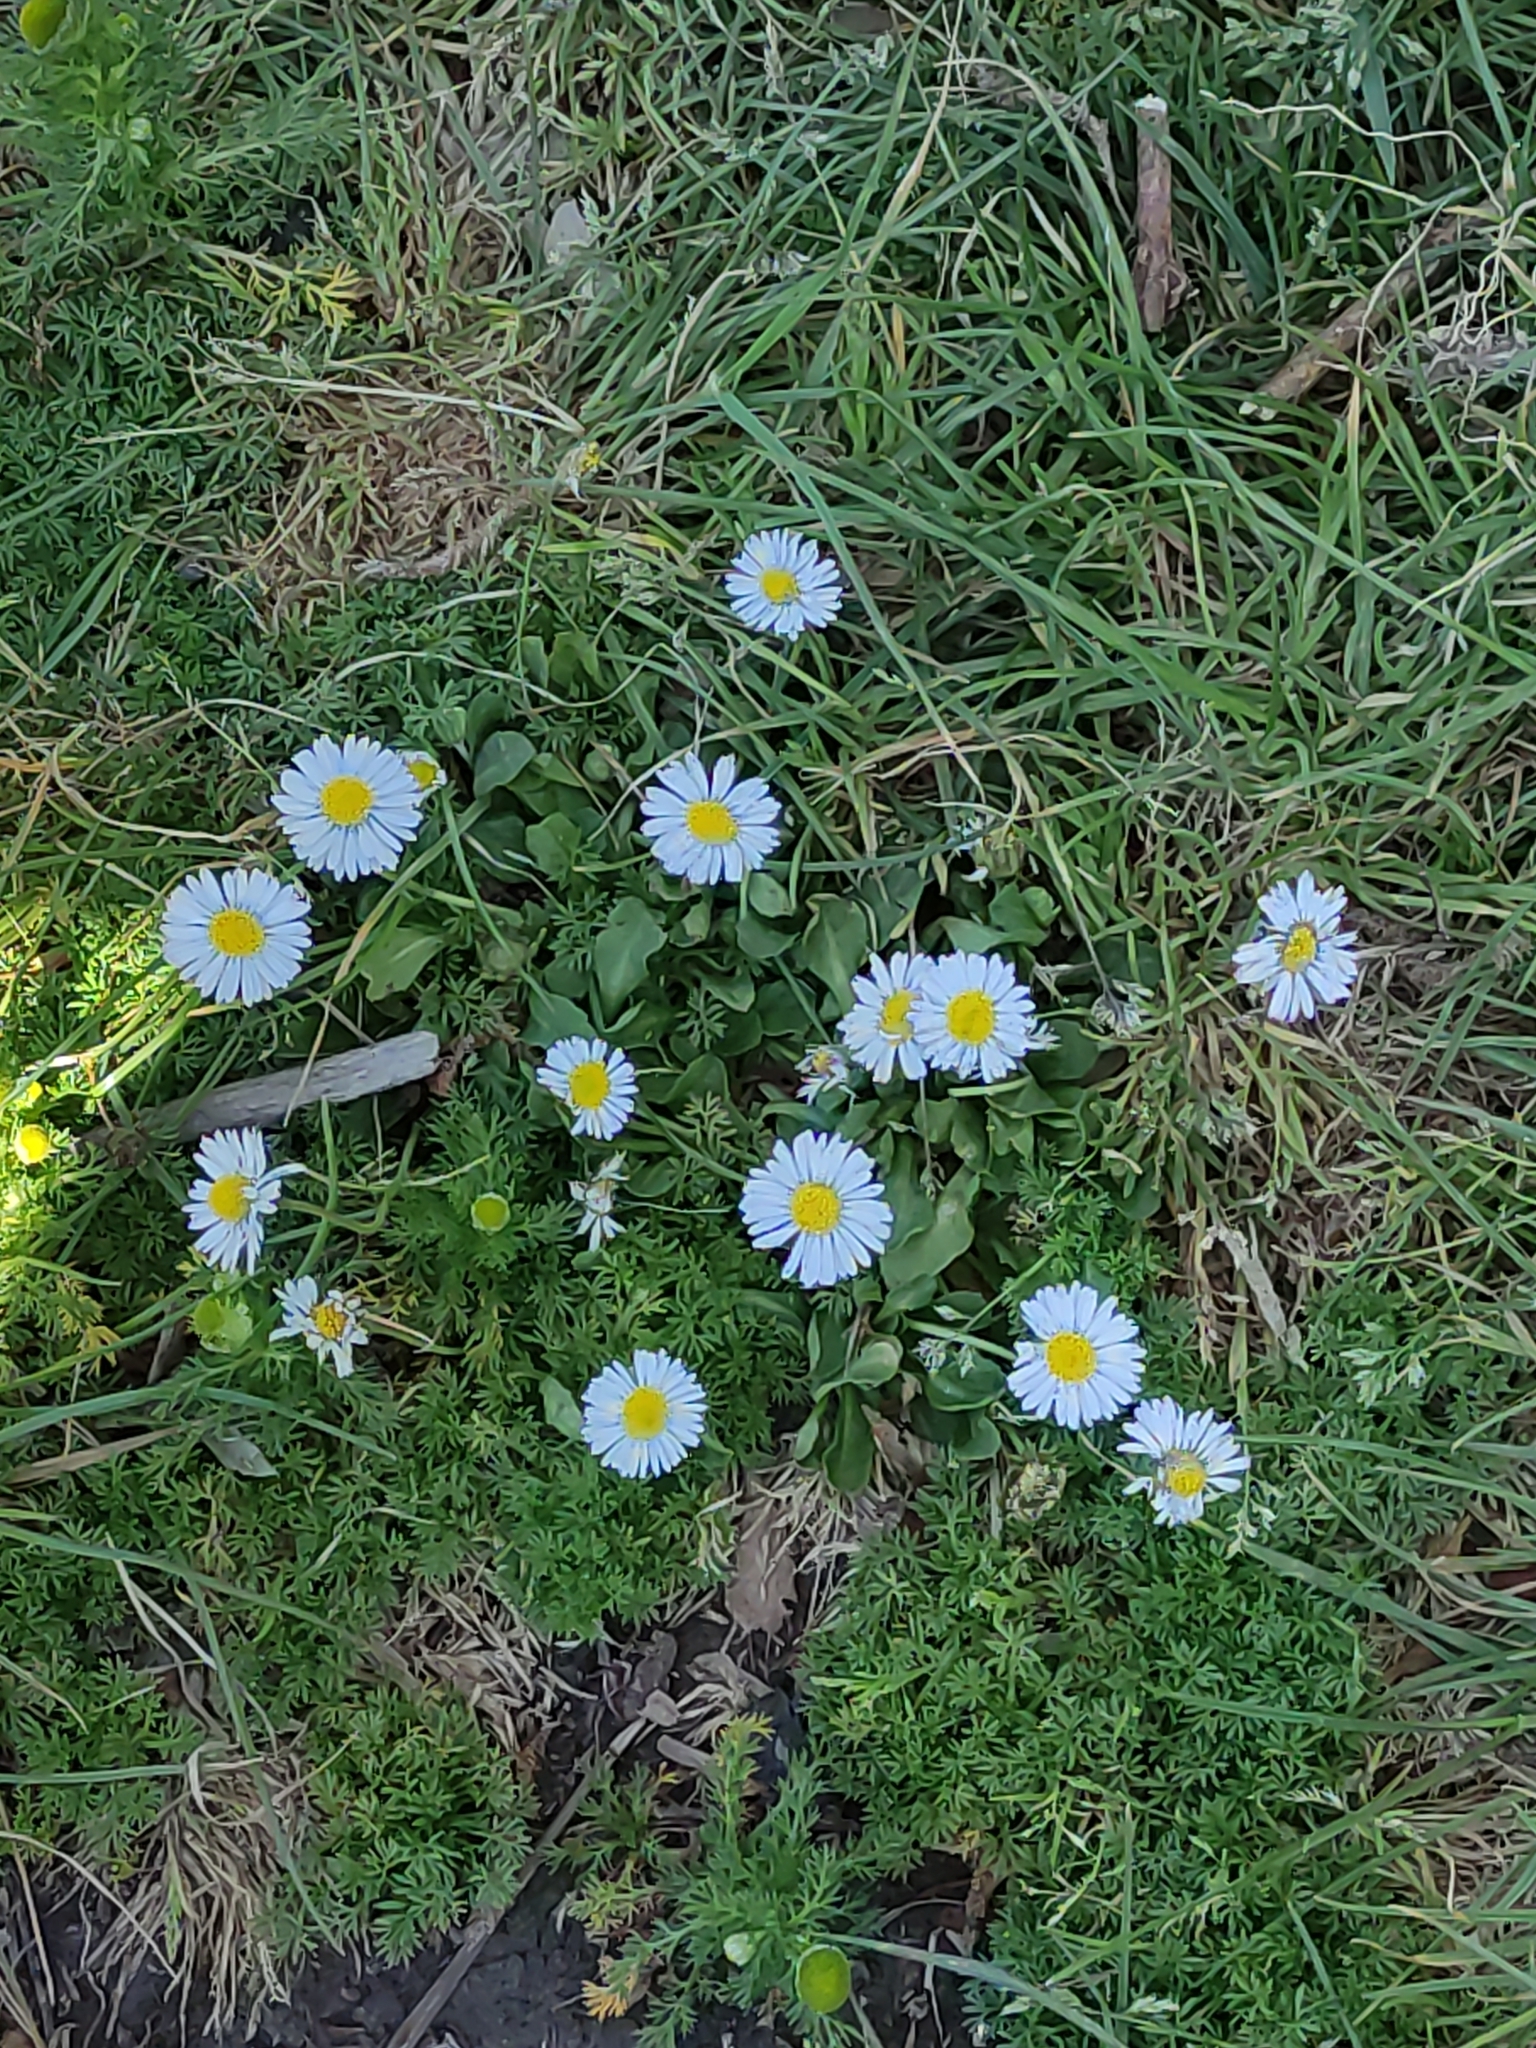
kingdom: Plantae
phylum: Tracheophyta
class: Magnoliopsida
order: Asterales
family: Asteraceae
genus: Bellis
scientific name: Bellis perennis
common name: Lawndaisy
